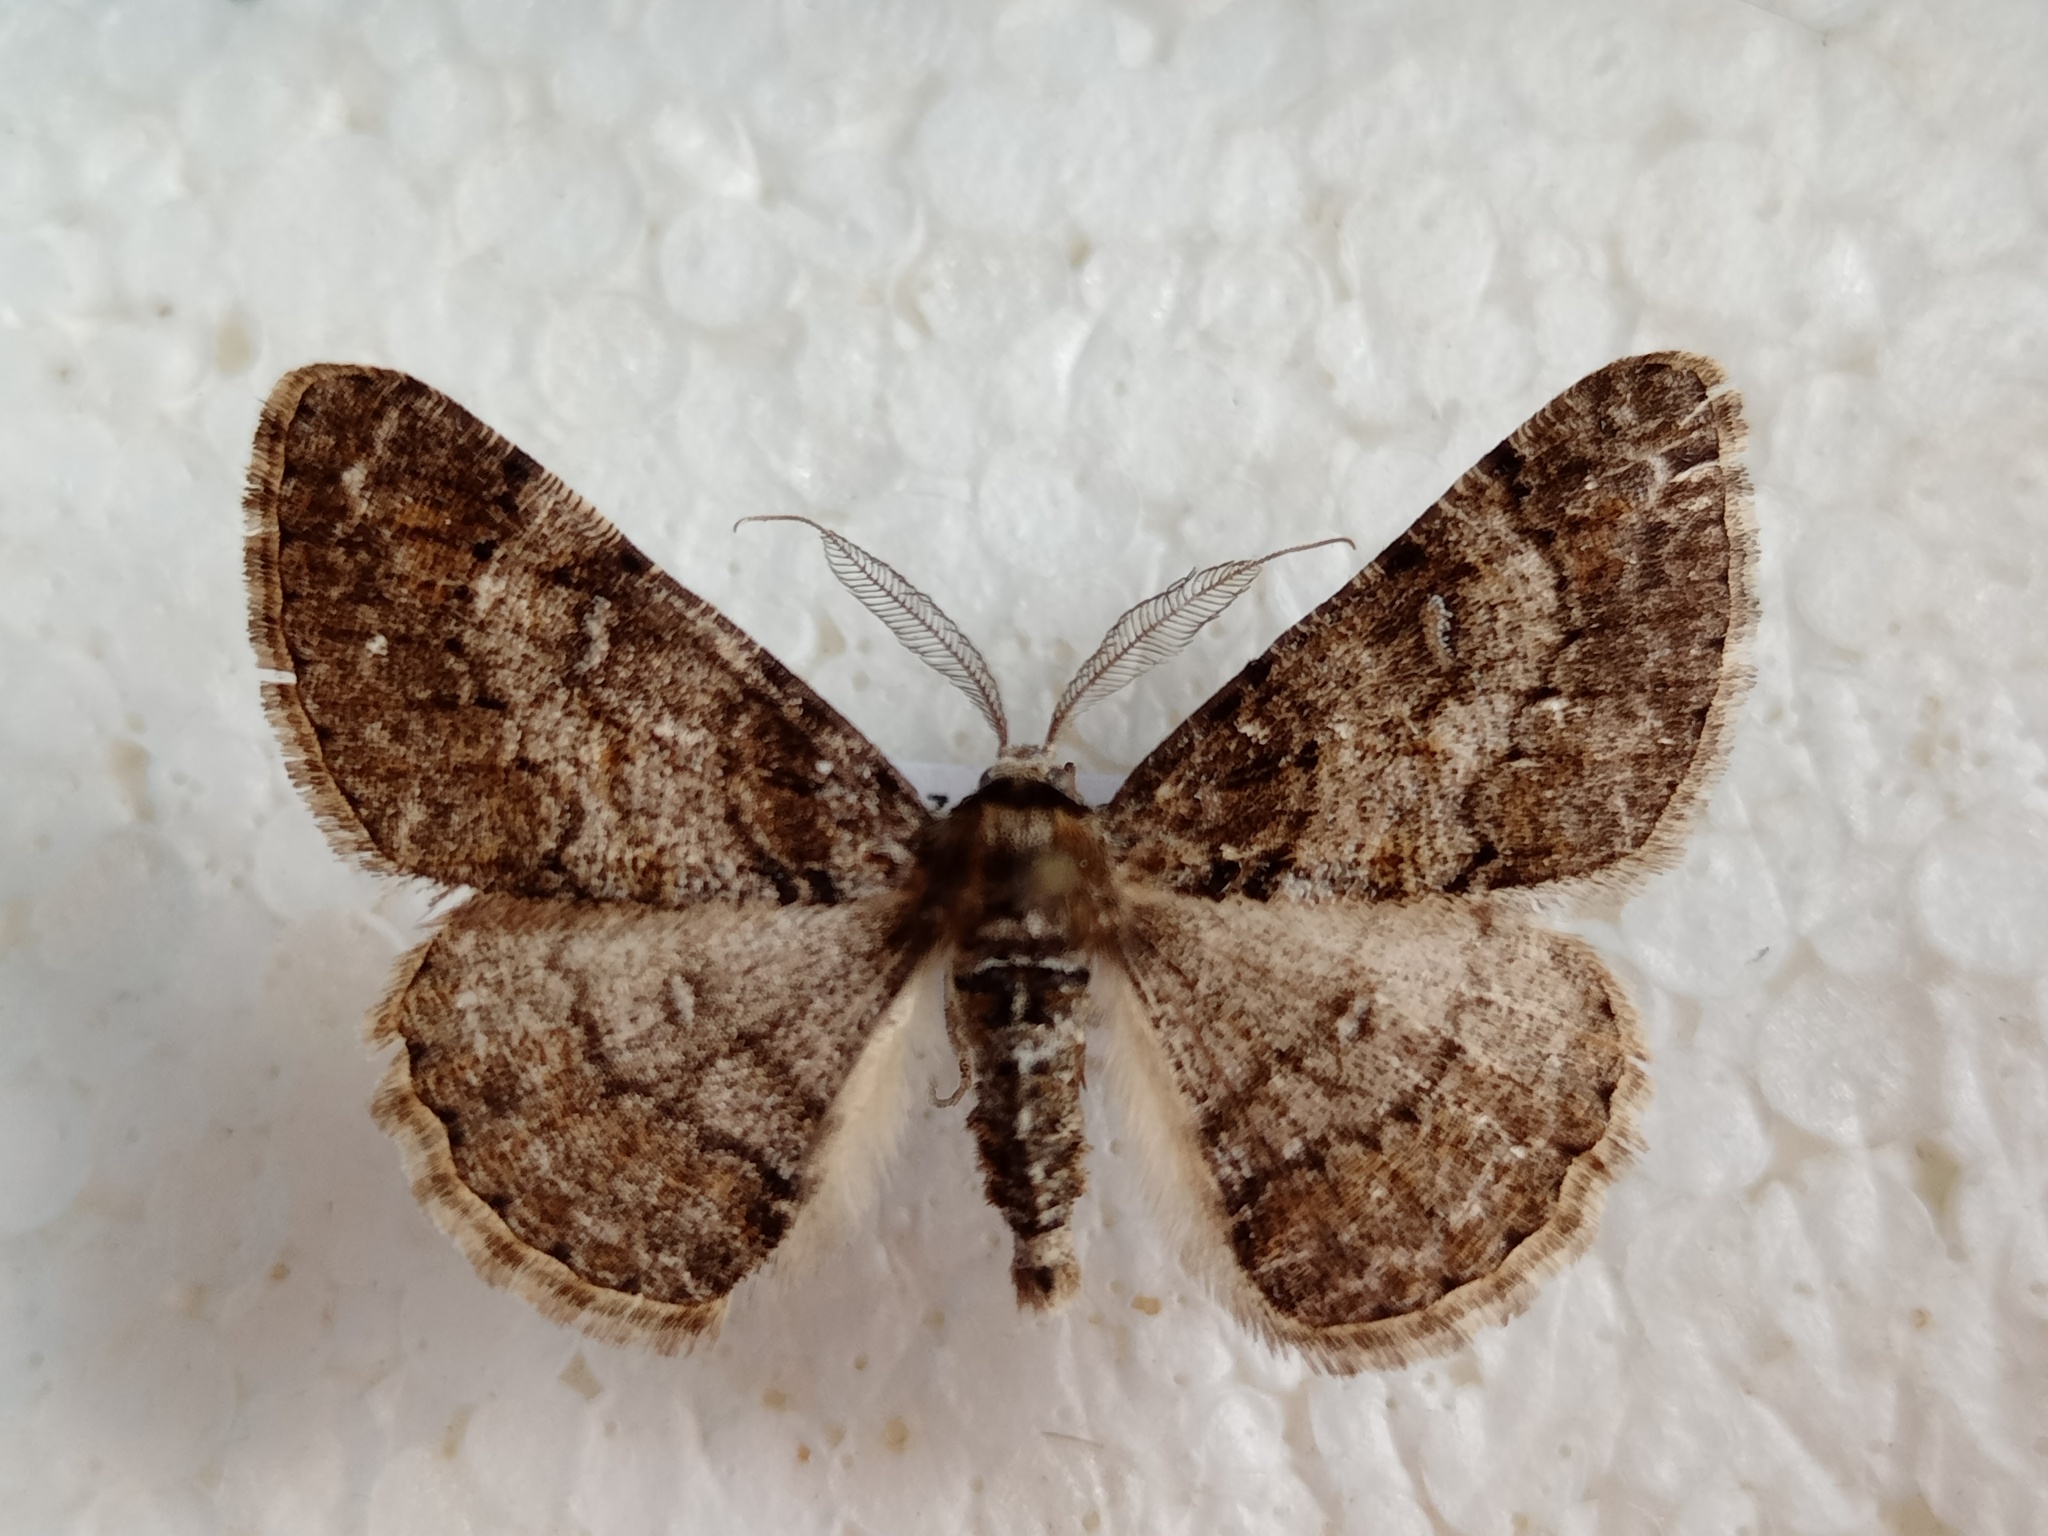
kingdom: Animalia
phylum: Arthropoda
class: Insecta
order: Lepidoptera
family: Geometridae
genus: Cleora
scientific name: Cleora cinctaria
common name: Ringed carpet
